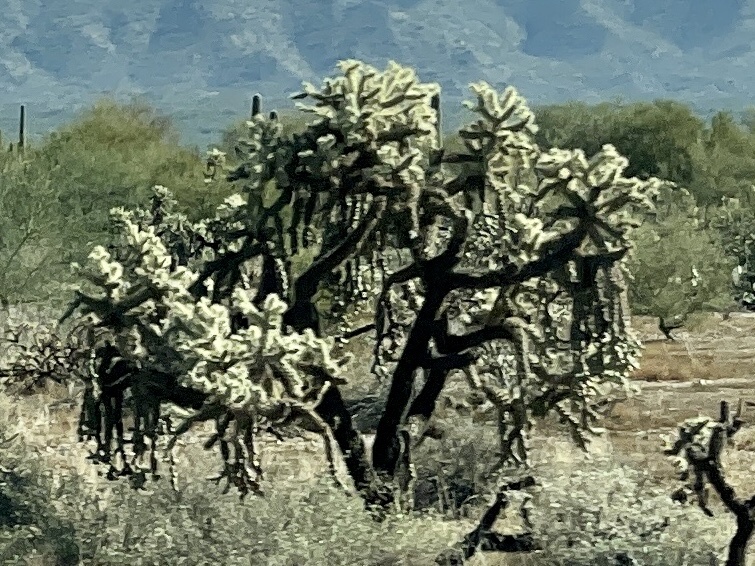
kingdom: Plantae
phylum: Tracheophyta
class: Magnoliopsida
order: Caryophyllales
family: Cactaceae
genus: Cylindropuntia
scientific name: Cylindropuntia fulgida
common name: Jumping cholla
